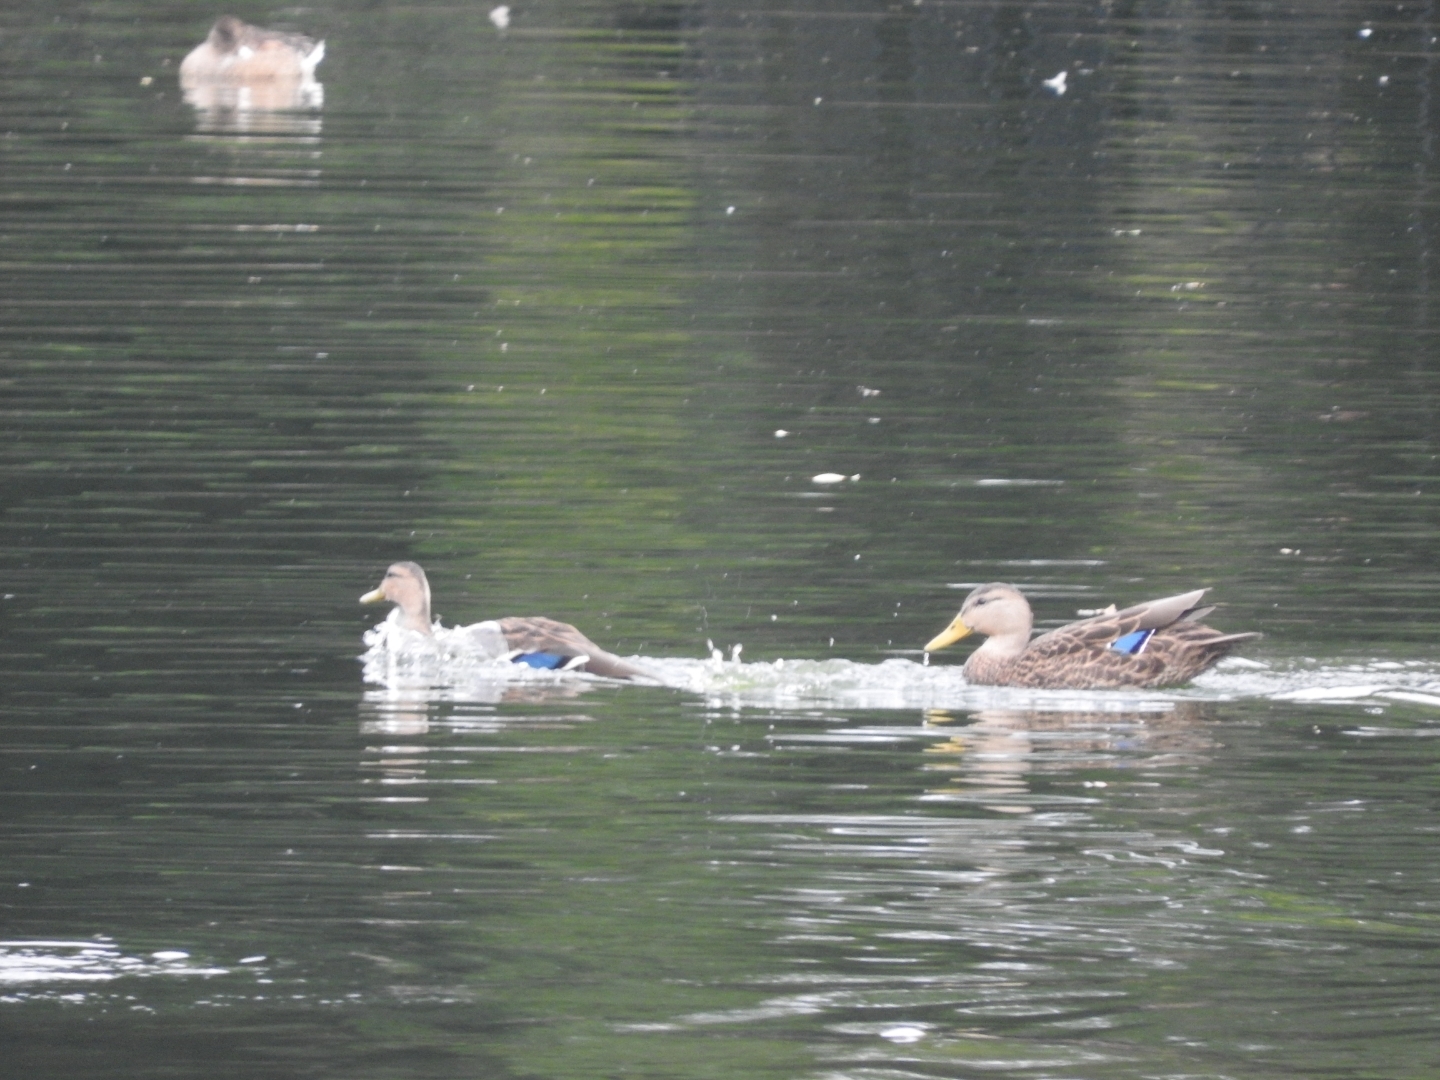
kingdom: Animalia
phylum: Chordata
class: Aves
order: Anseriformes
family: Anatidae
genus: Anas
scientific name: Anas diazi
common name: Mexican duck
